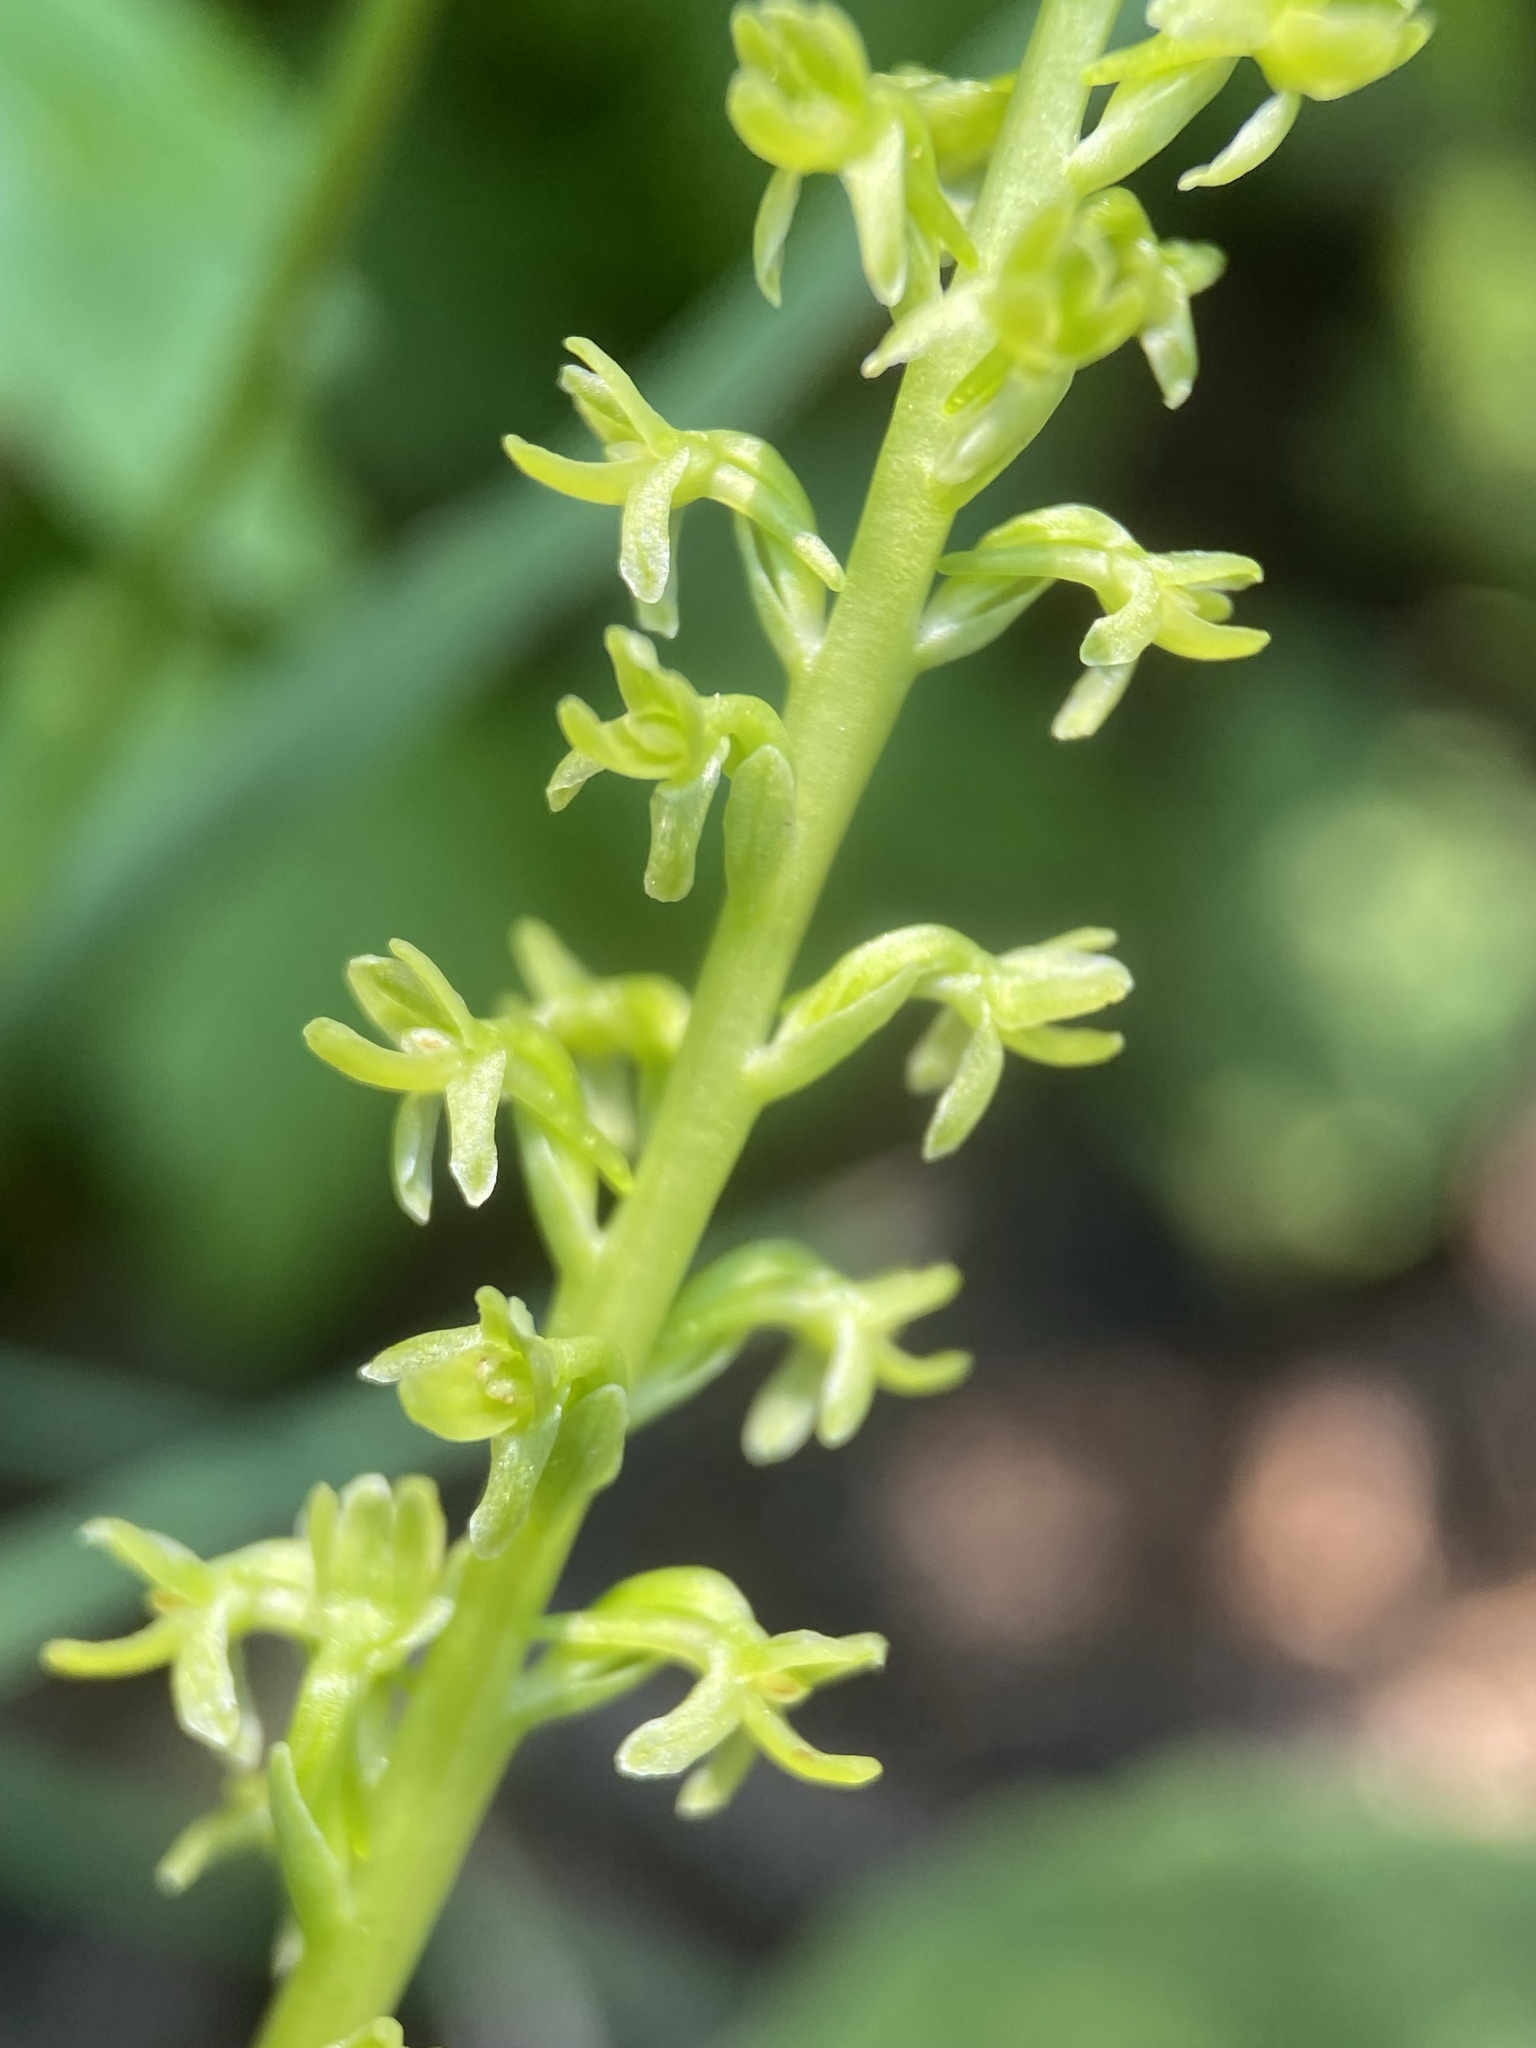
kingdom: Plantae
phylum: Tracheophyta
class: Liliopsida
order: Asparagales
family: Orchidaceae
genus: Platanthera
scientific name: Platanthera unalascensis
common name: Alaska bog orchid
